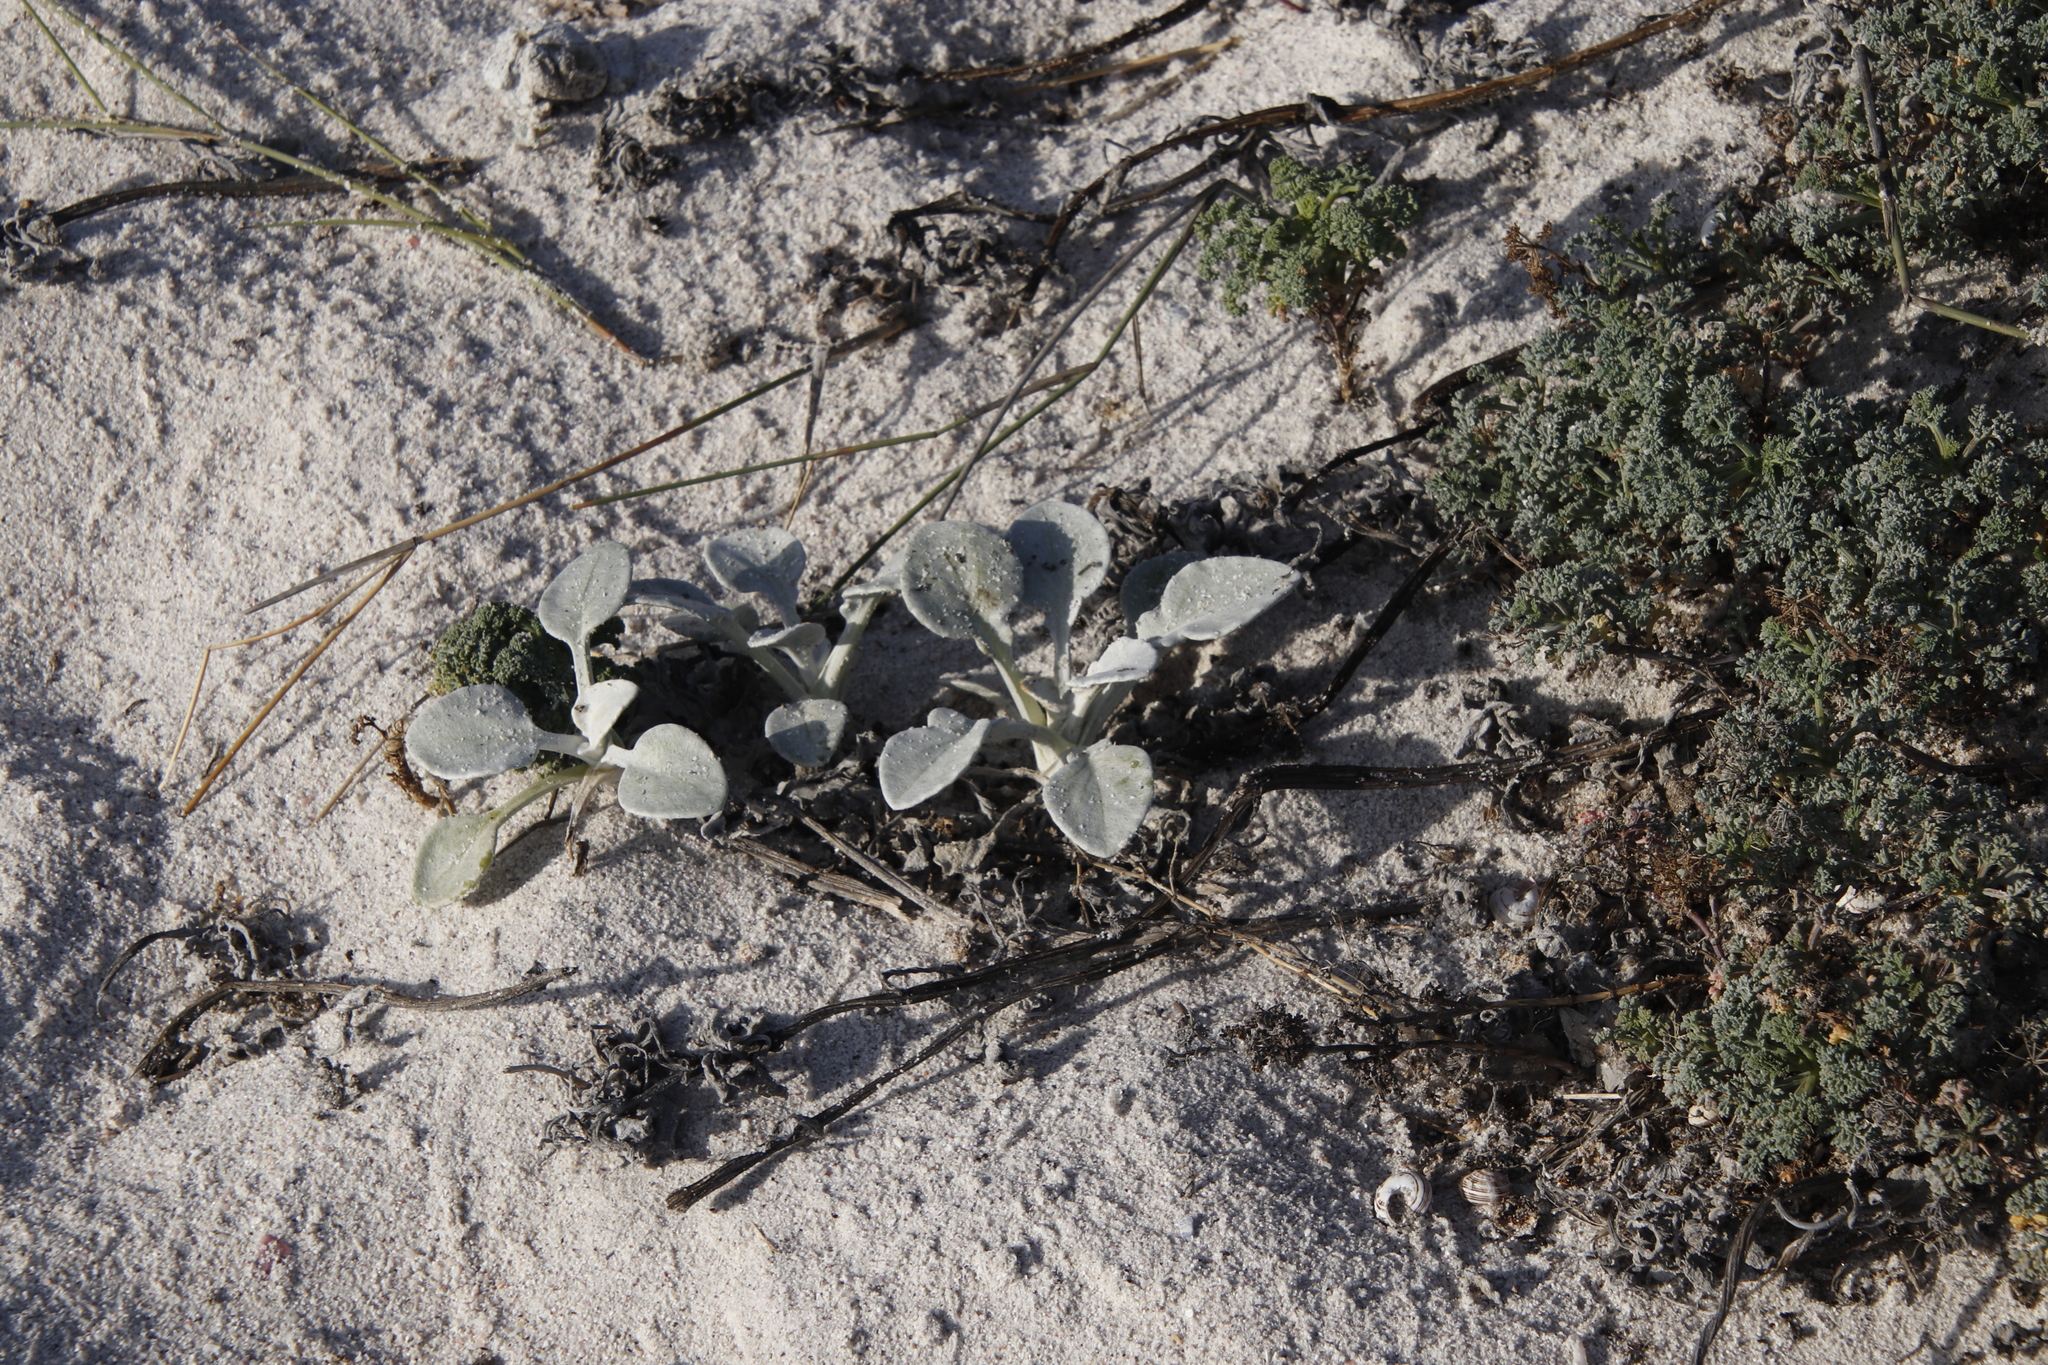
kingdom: Plantae
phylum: Tracheophyta
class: Magnoliopsida
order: Asterales
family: Asteraceae
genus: Arctotheca
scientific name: Arctotheca populifolia
